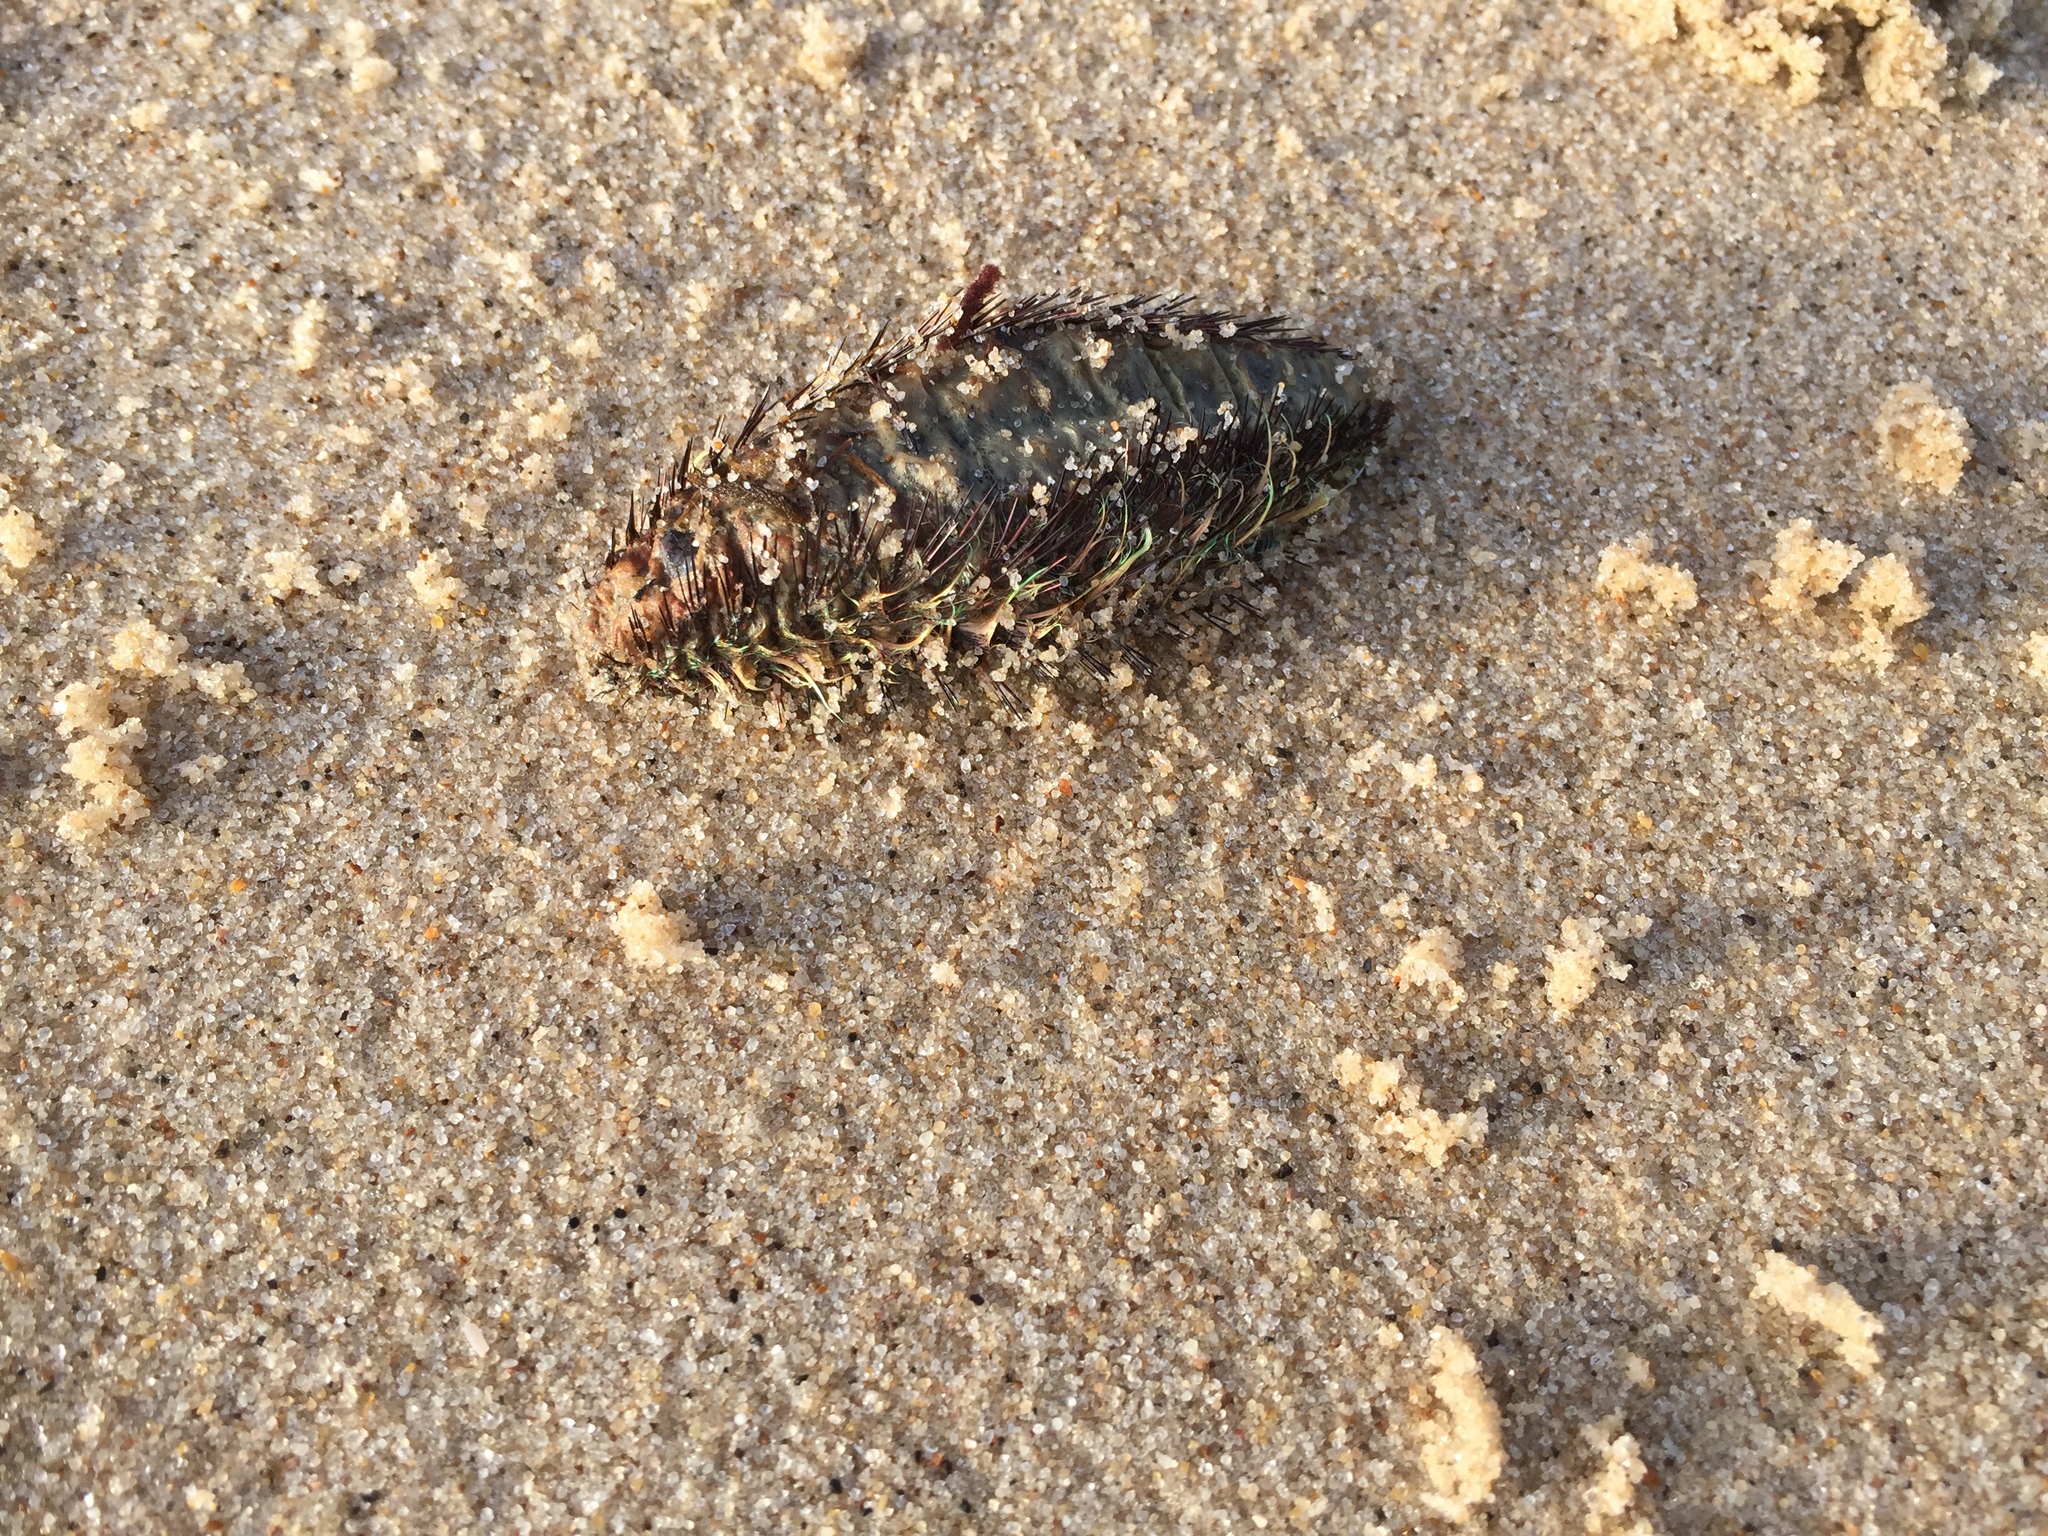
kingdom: Animalia
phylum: Annelida
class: Polychaeta
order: Phyllodocida
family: Aphroditidae
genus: Aphrodita
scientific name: Aphrodita aculeata
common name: Sea mouse
